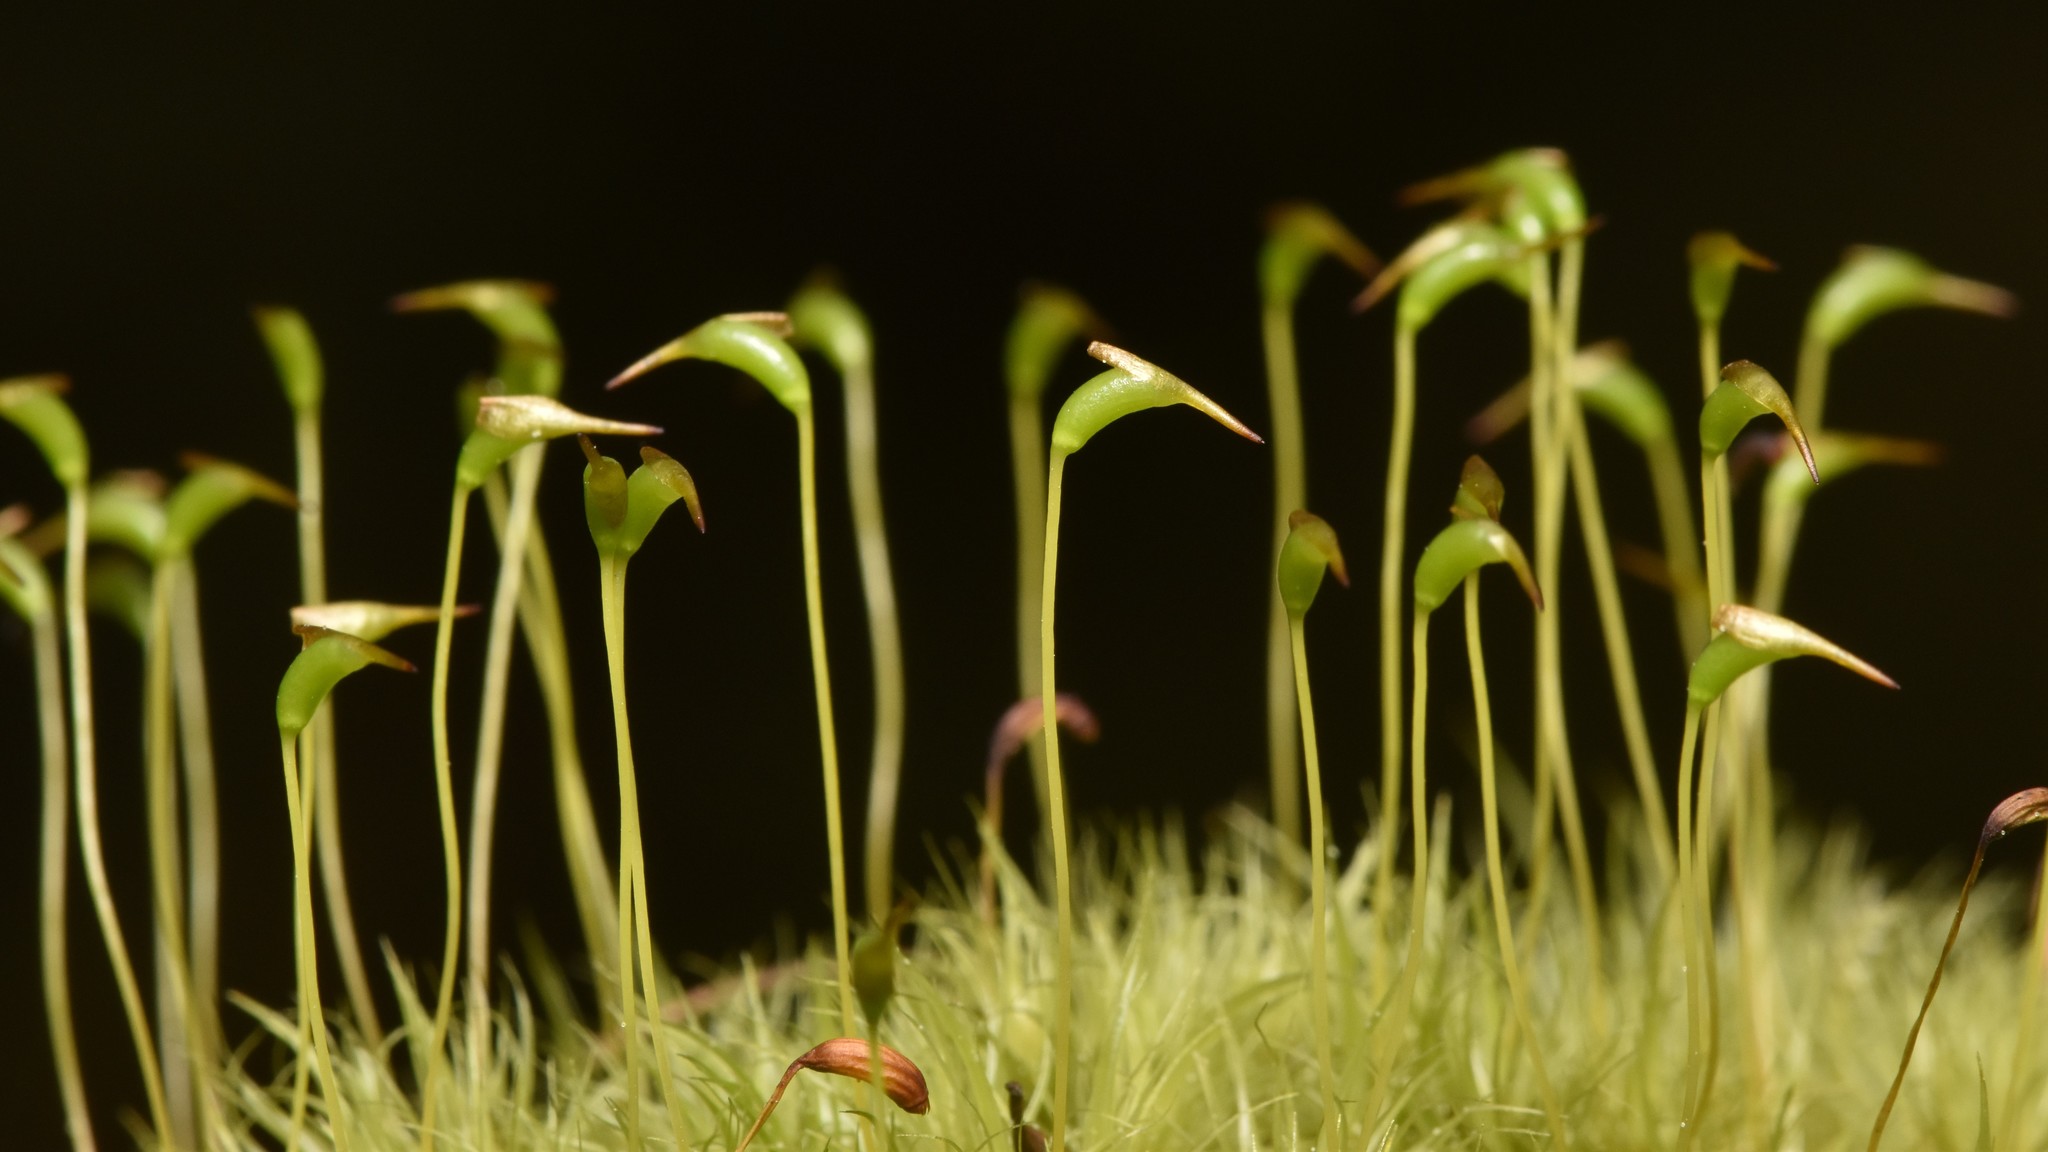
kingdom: Plantae
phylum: Bryophyta
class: Bryopsida
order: Dicranales
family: Dicranaceae
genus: Dicranum
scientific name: Dicranum scoparium
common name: Broom fork-moss
